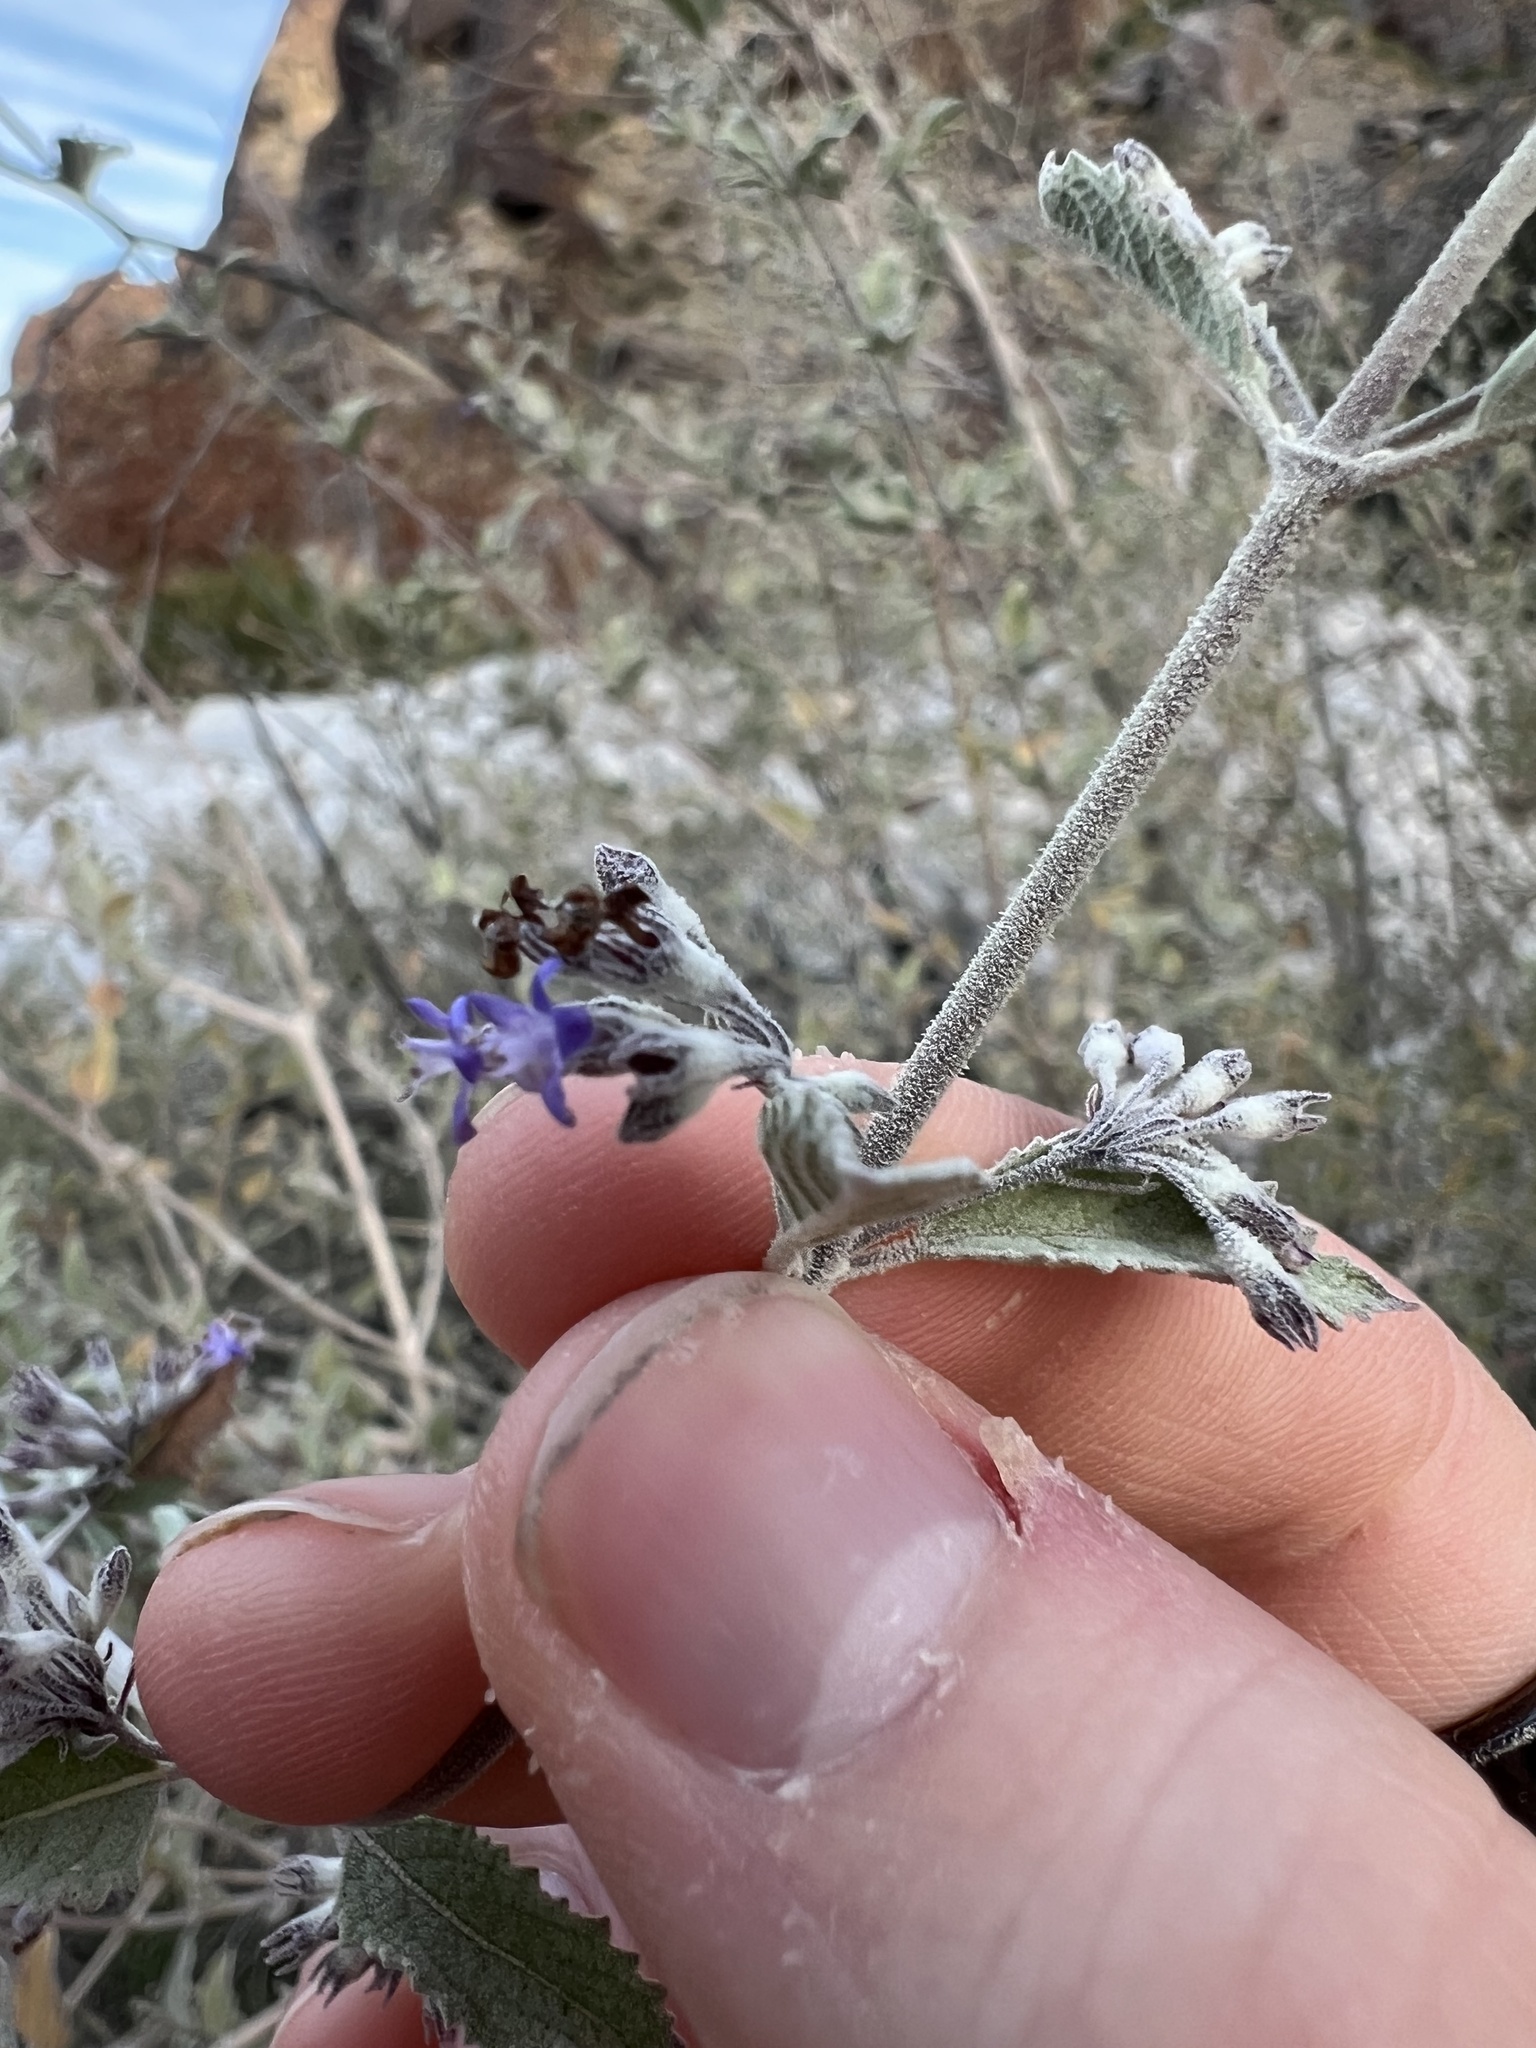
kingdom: Plantae
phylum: Tracheophyta
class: Magnoliopsida
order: Lamiales
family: Lamiaceae
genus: Condea
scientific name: Condea emoryi
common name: Chia
